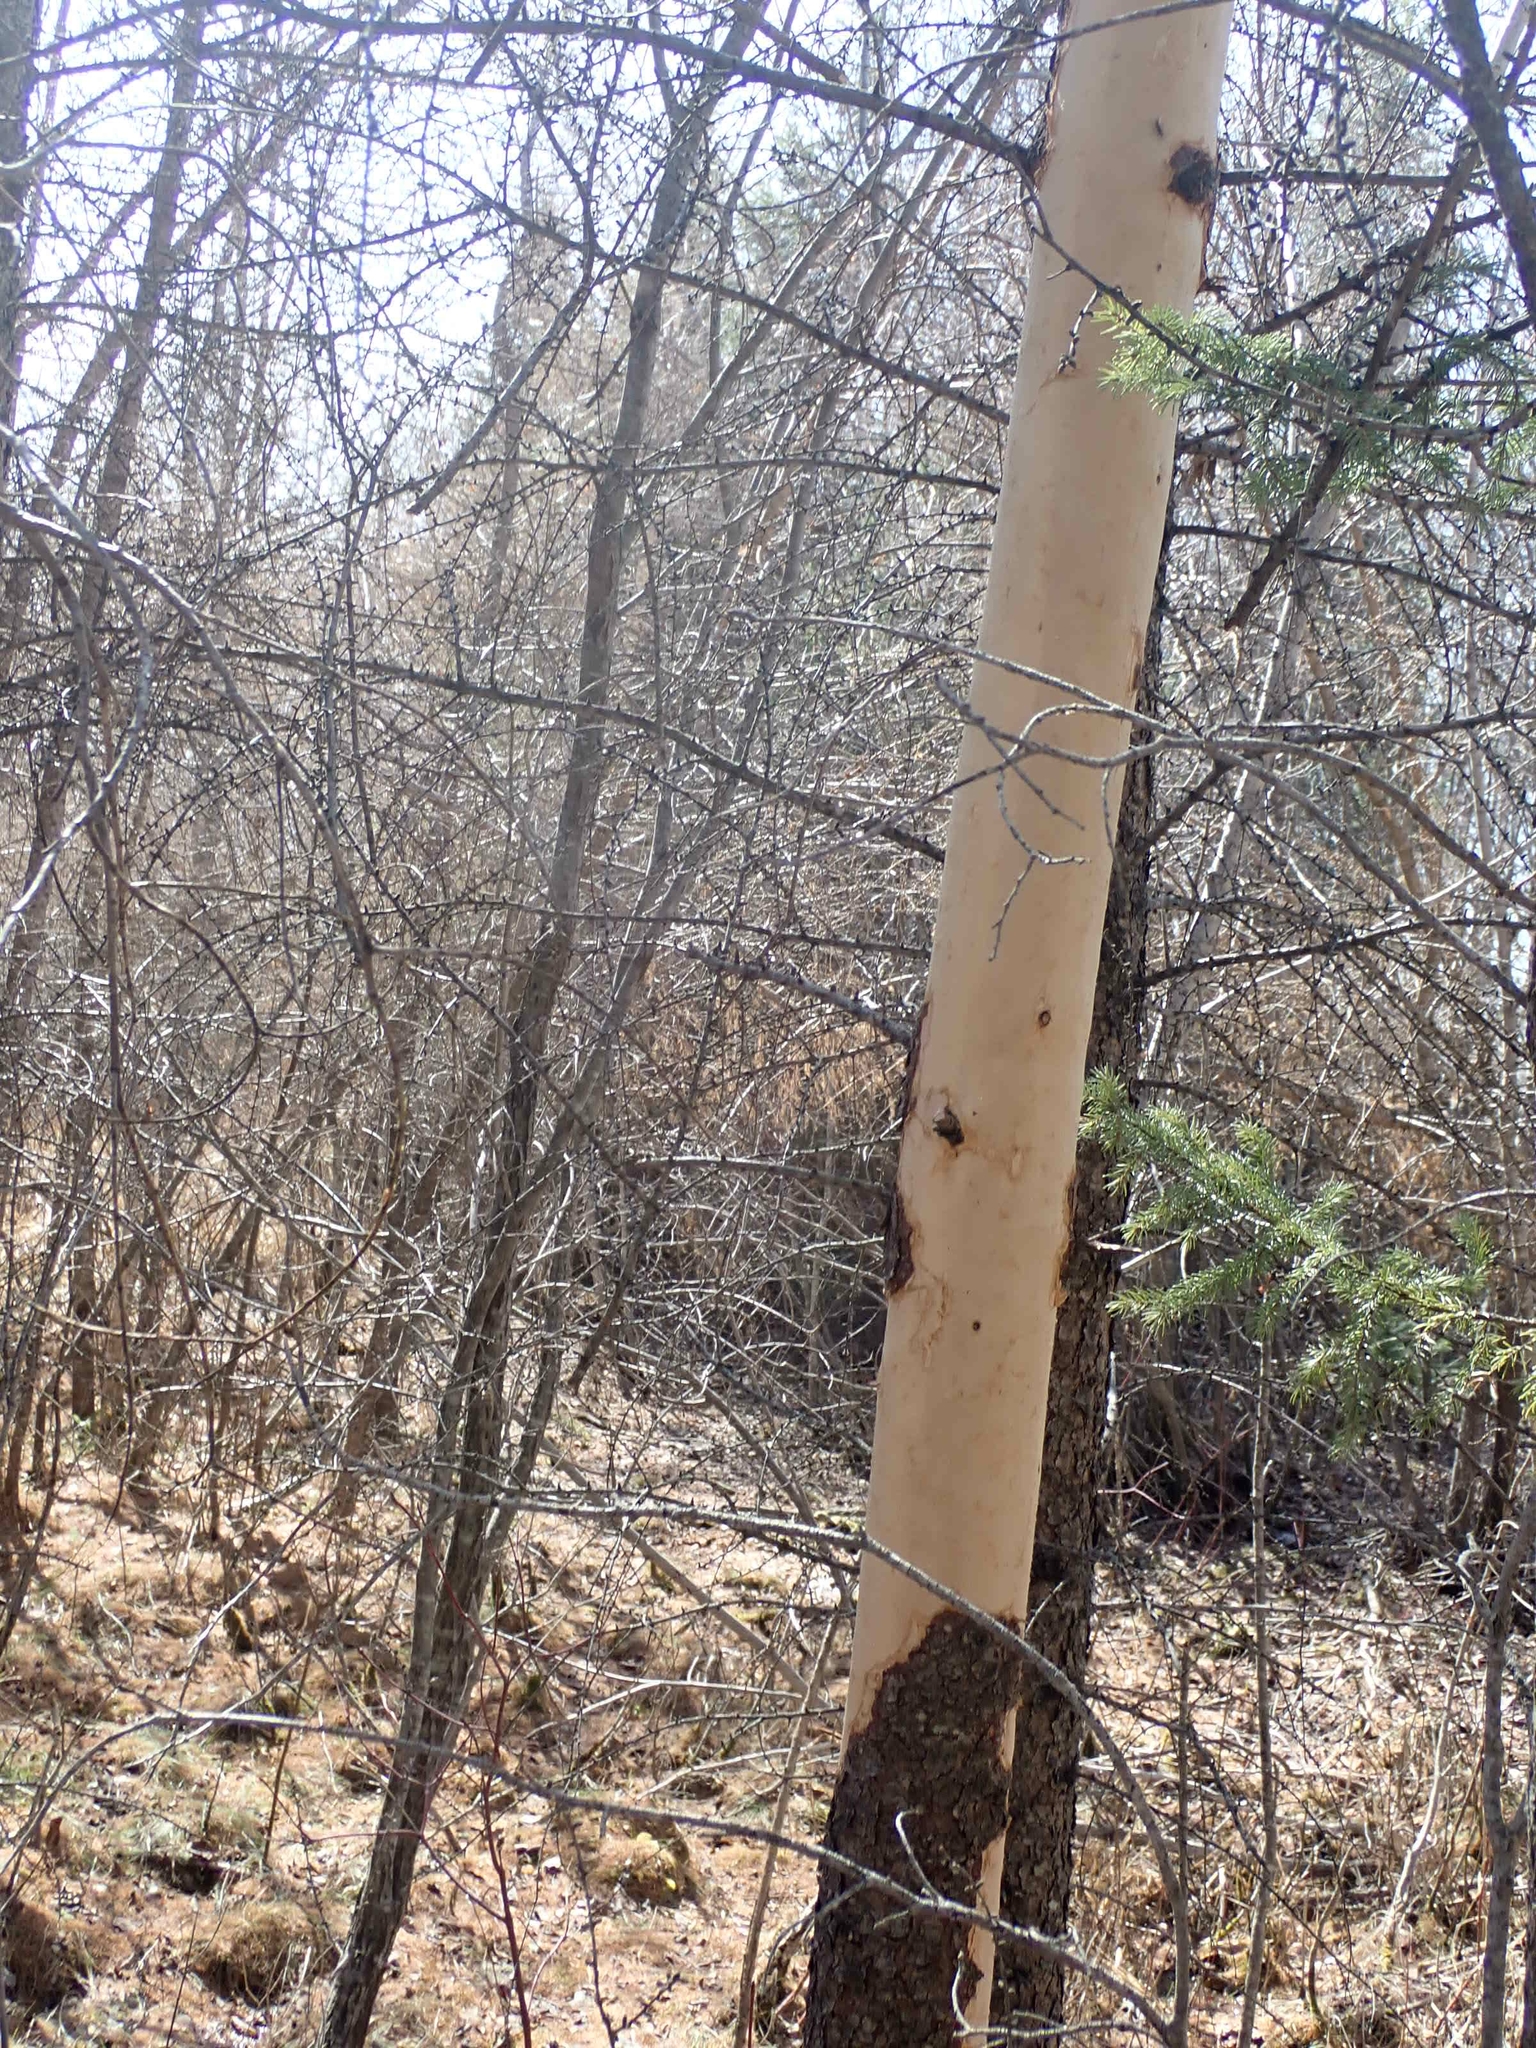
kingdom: Animalia
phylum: Chordata
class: Mammalia
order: Rodentia
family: Erethizontidae
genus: Erethizon
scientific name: Erethizon dorsatus
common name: North american porcupine
